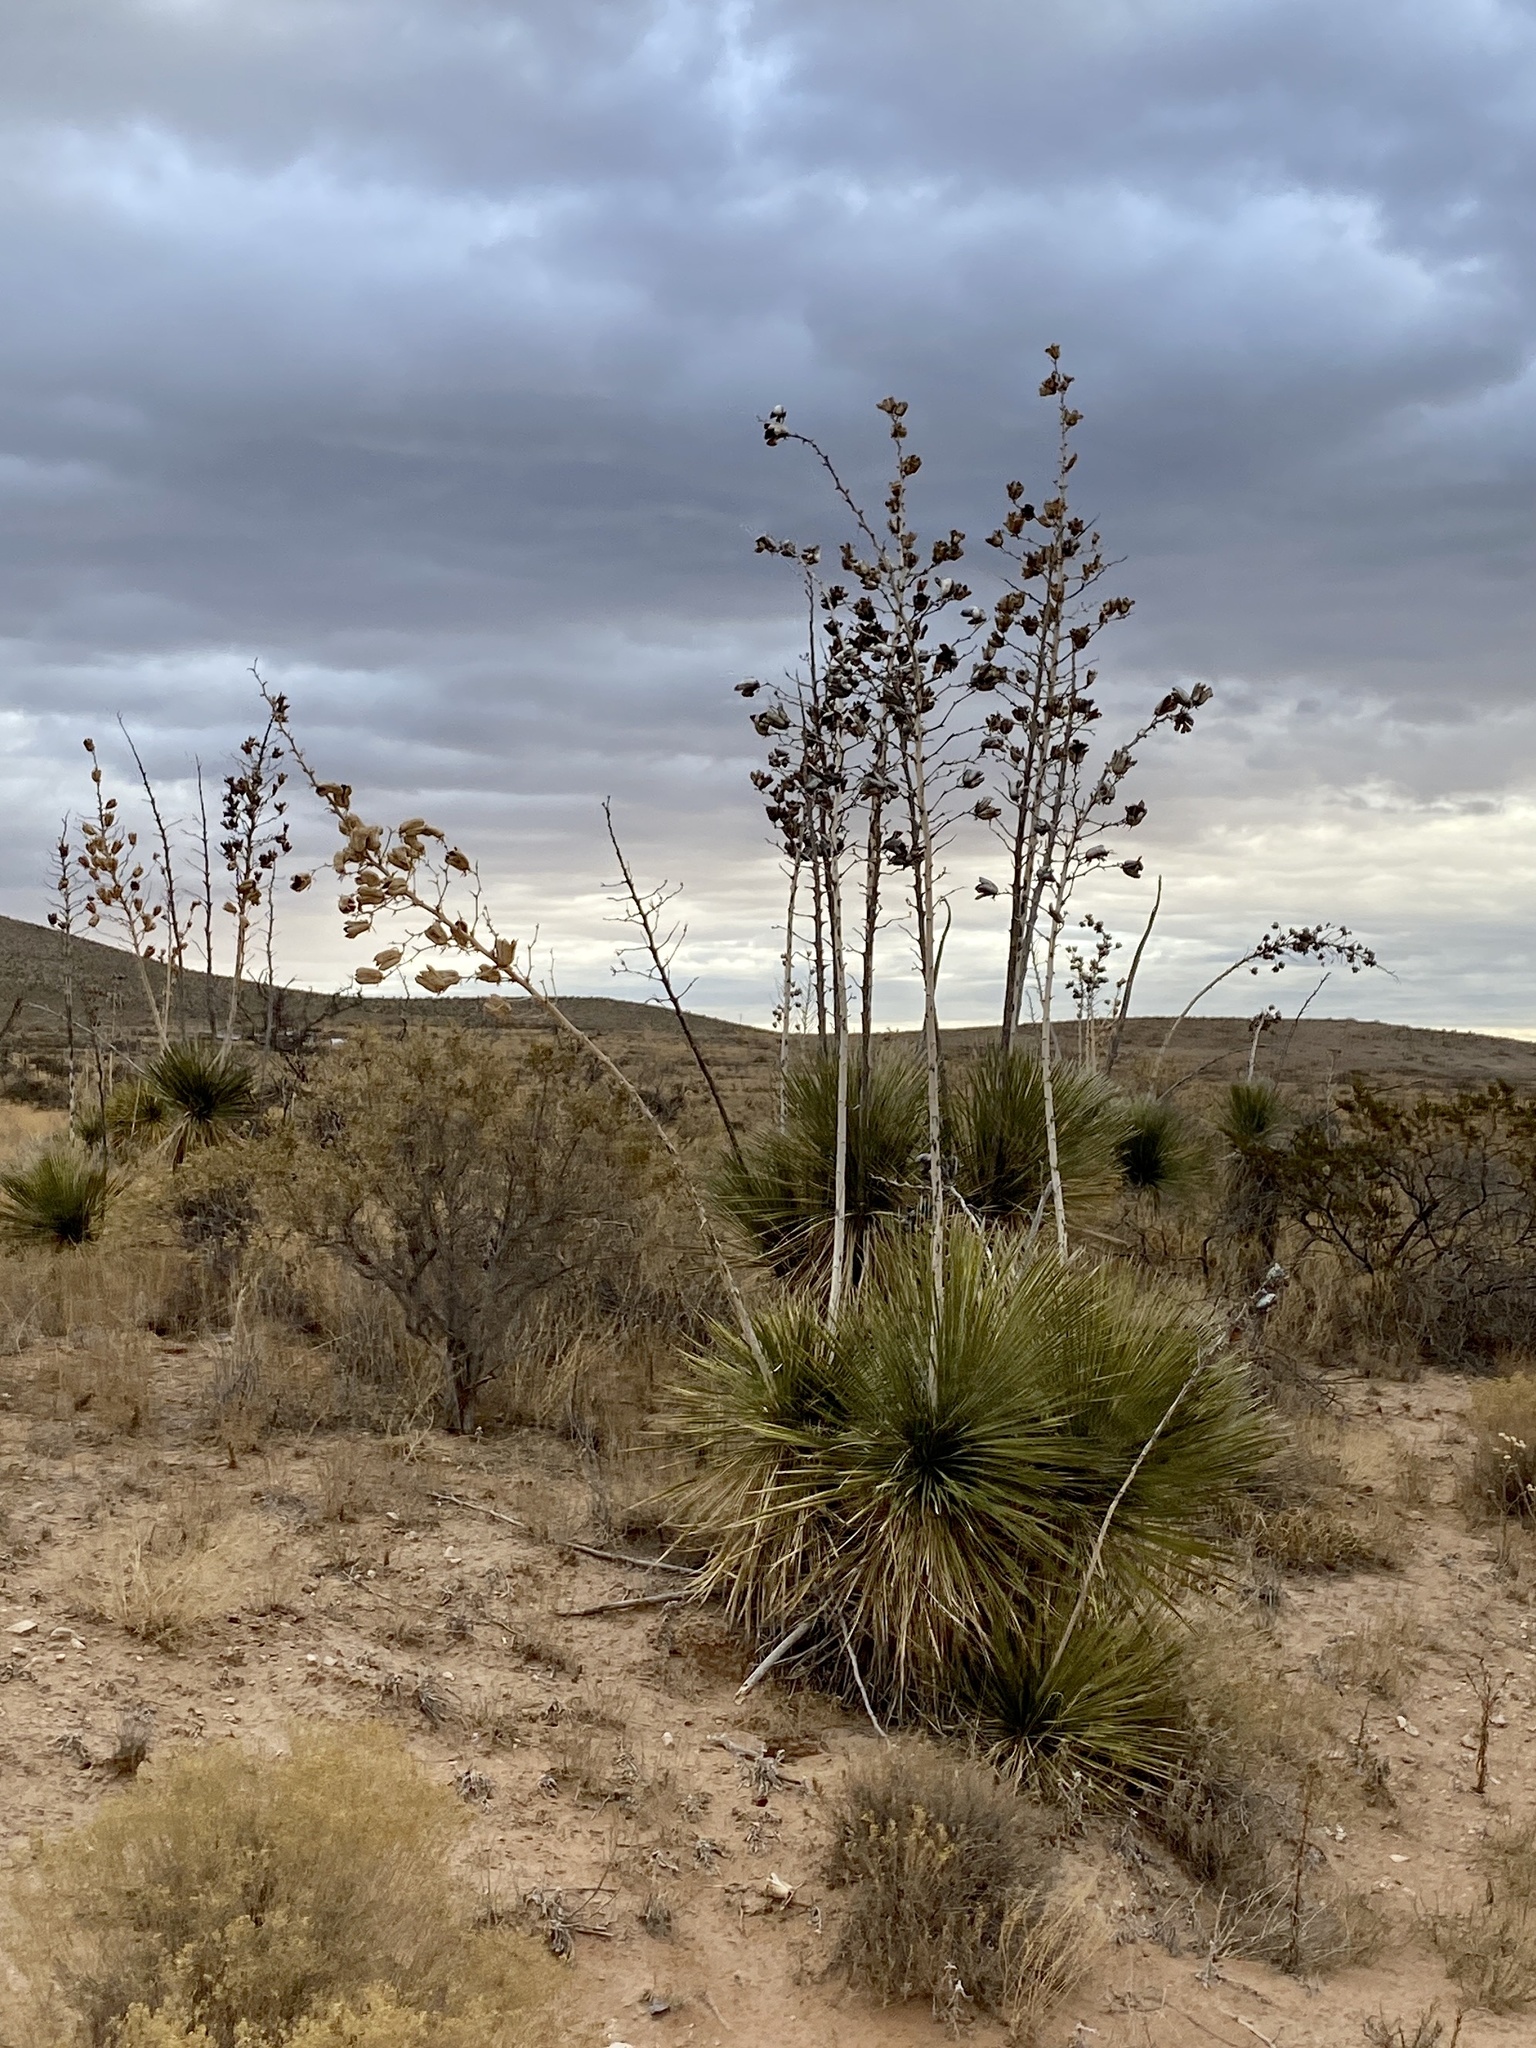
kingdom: Plantae
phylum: Tracheophyta
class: Liliopsida
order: Asparagales
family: Asparagaceae
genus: Yucca
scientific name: Yucca elata
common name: Palmella
